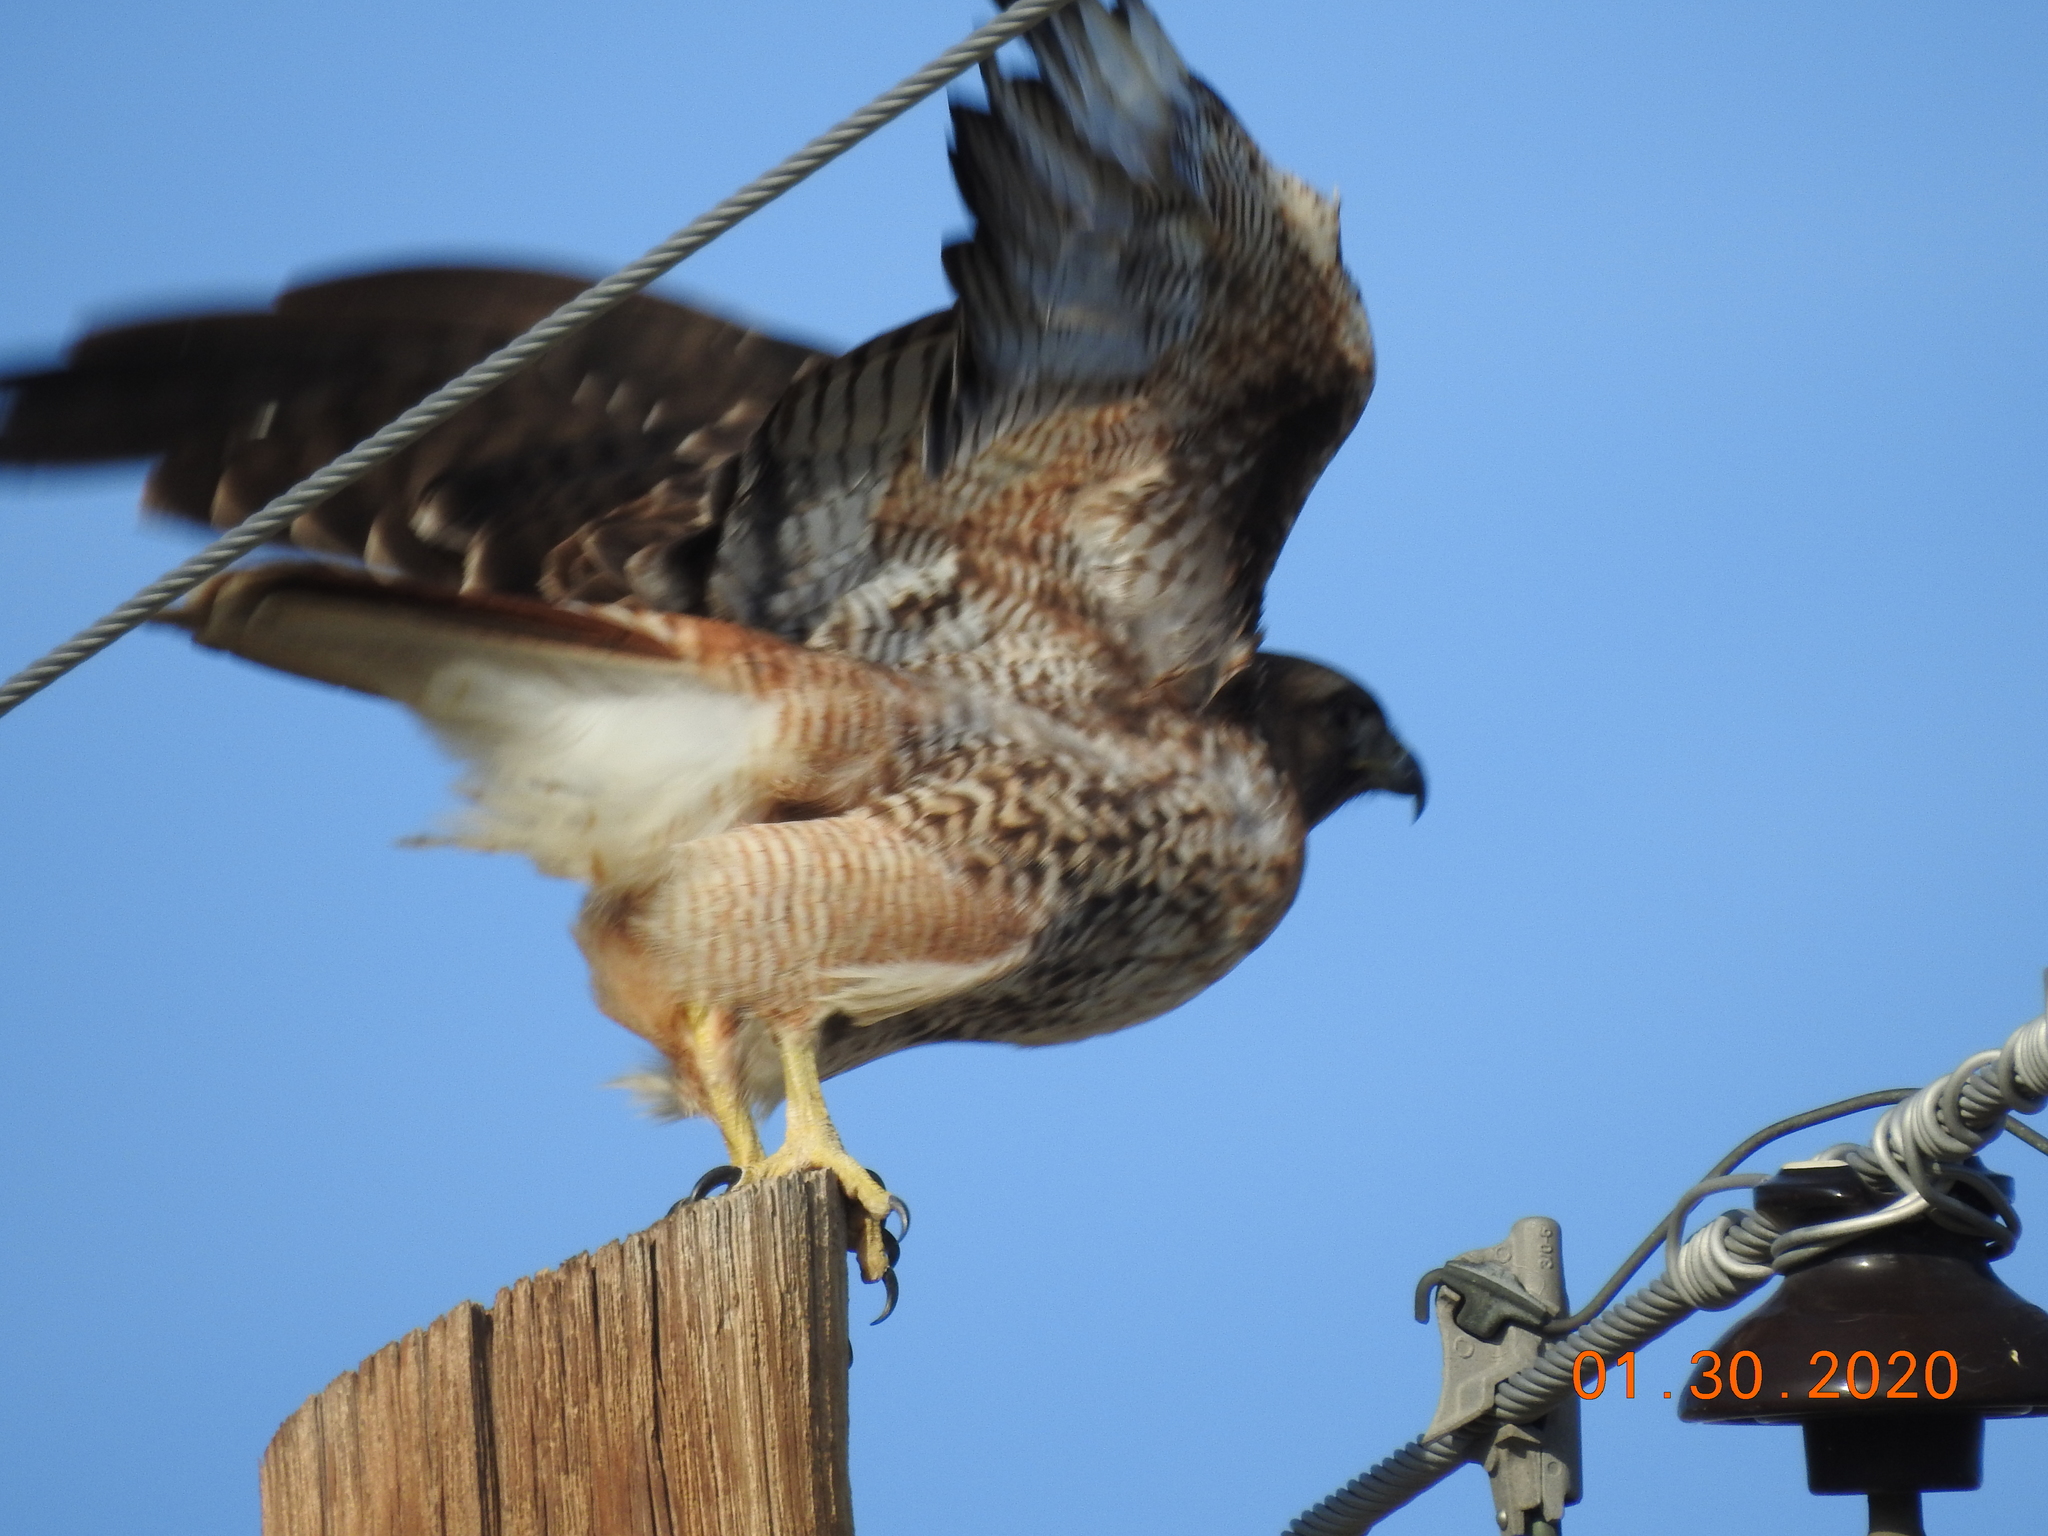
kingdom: Animalia
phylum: Chordata
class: Aves
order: Accipitriformes
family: Accipitridae
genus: Buteo
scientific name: Buteo jamaicensis
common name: Red-tailed hawk
